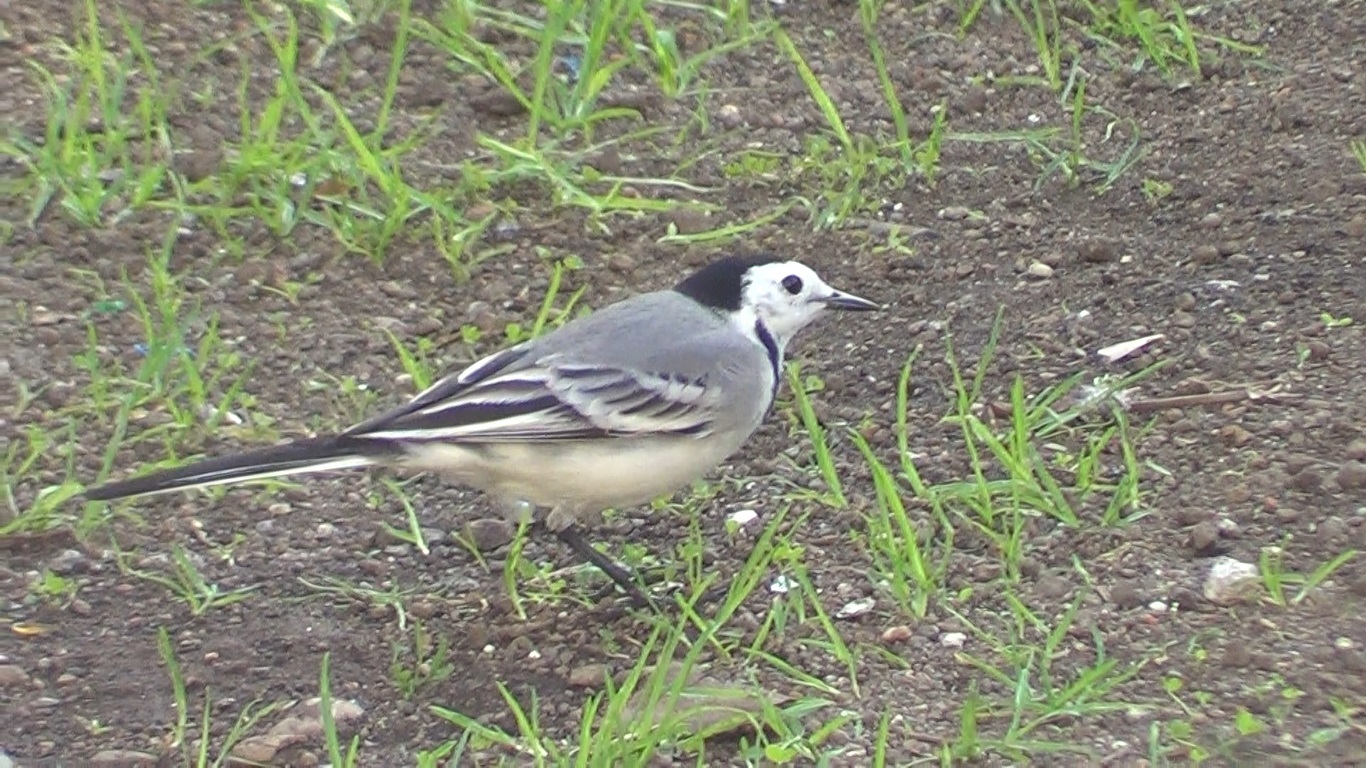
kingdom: Animalia
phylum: Chordata
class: Aves
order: Passeriformes
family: Motacillidae
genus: Motacilla
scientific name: Motacilla alba
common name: White wagtail
